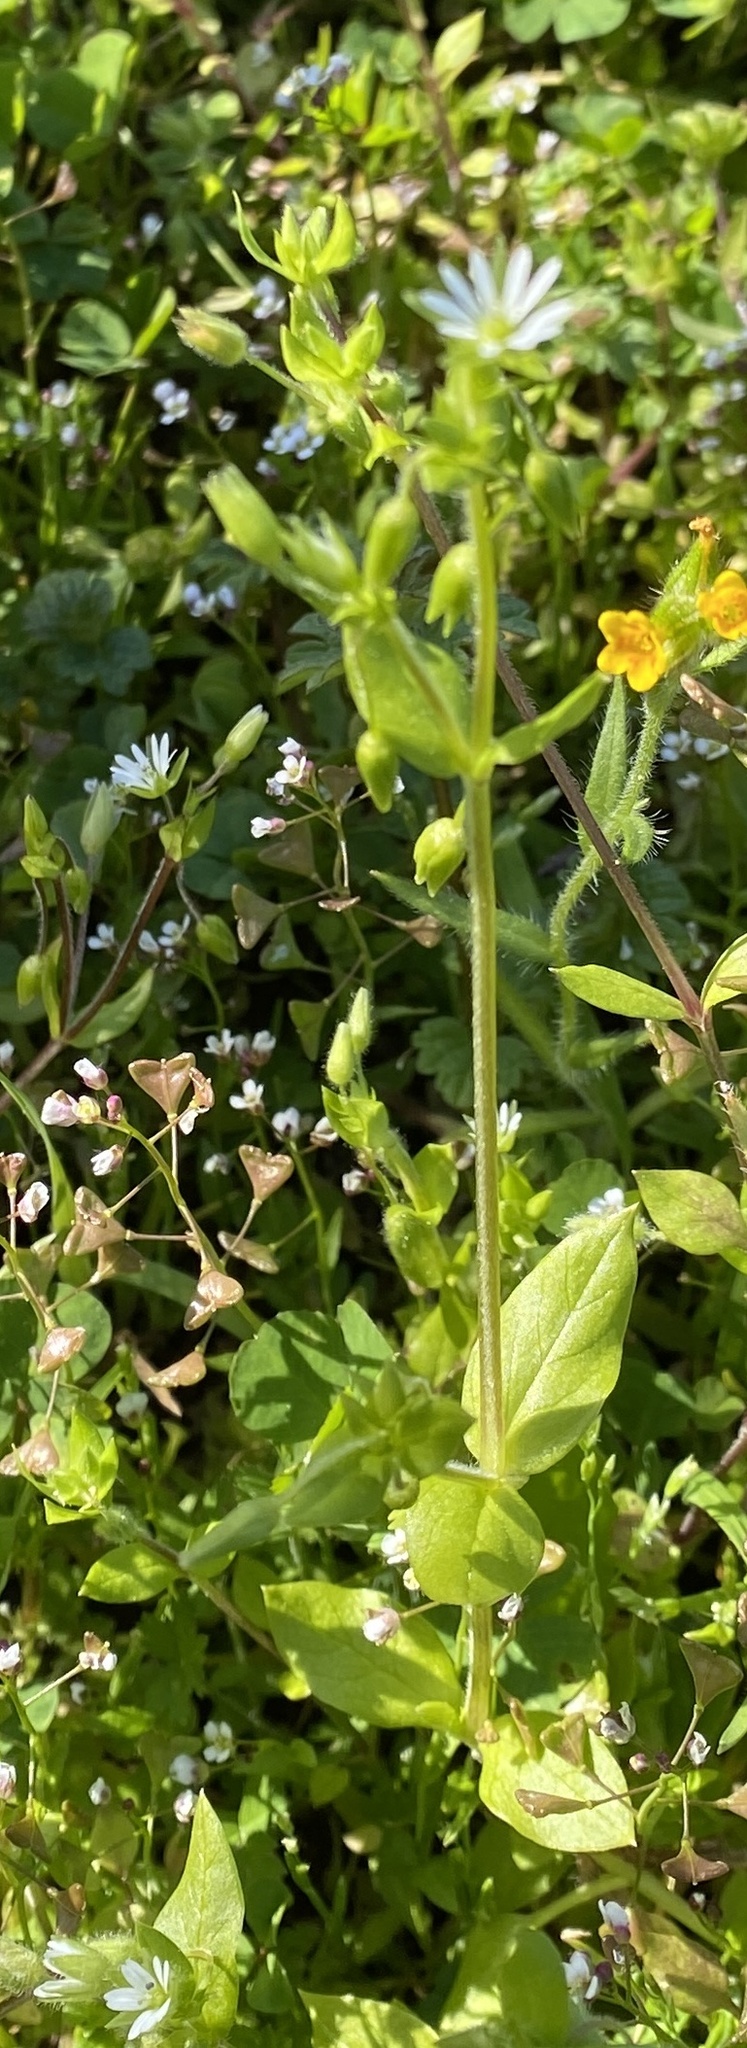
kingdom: Plantae
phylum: Tracheophyta
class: Magnoliopsida
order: Caryophyllales
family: Caryophyllaceae
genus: Stellaria
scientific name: Stellaria media
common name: Common chickweed
